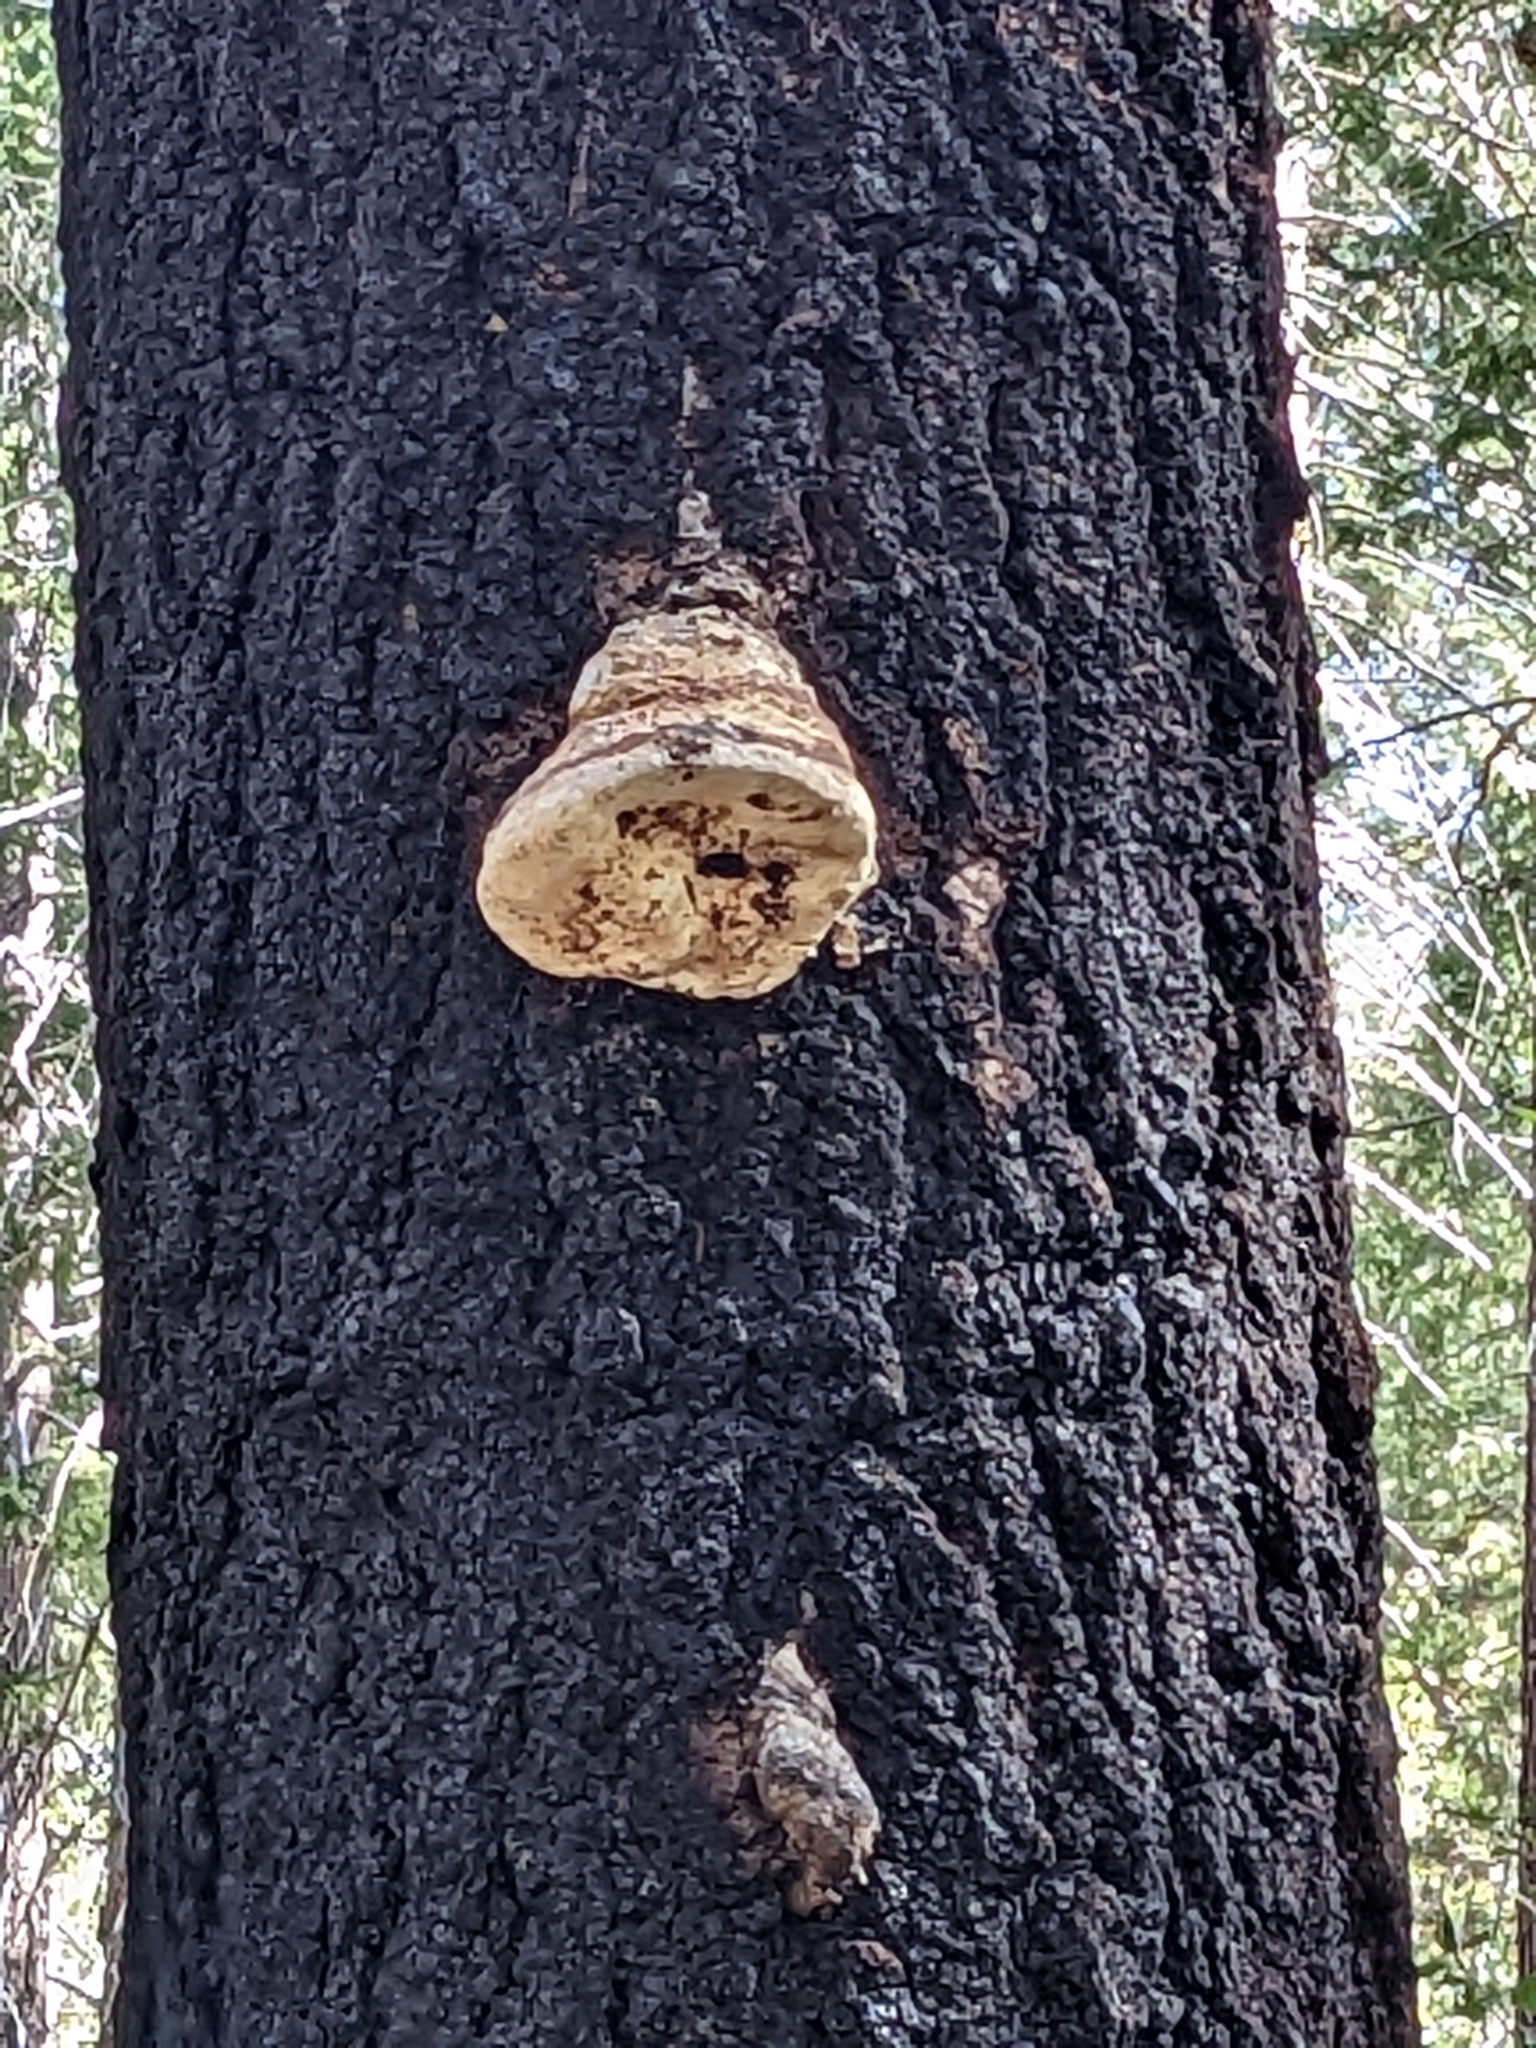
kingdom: Fungi
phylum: Basidiomycota
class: Agaricomycetes
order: Polyporales
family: Fomitopsidaceae
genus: Fomitopsis
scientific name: Fomitopsis officinalis
